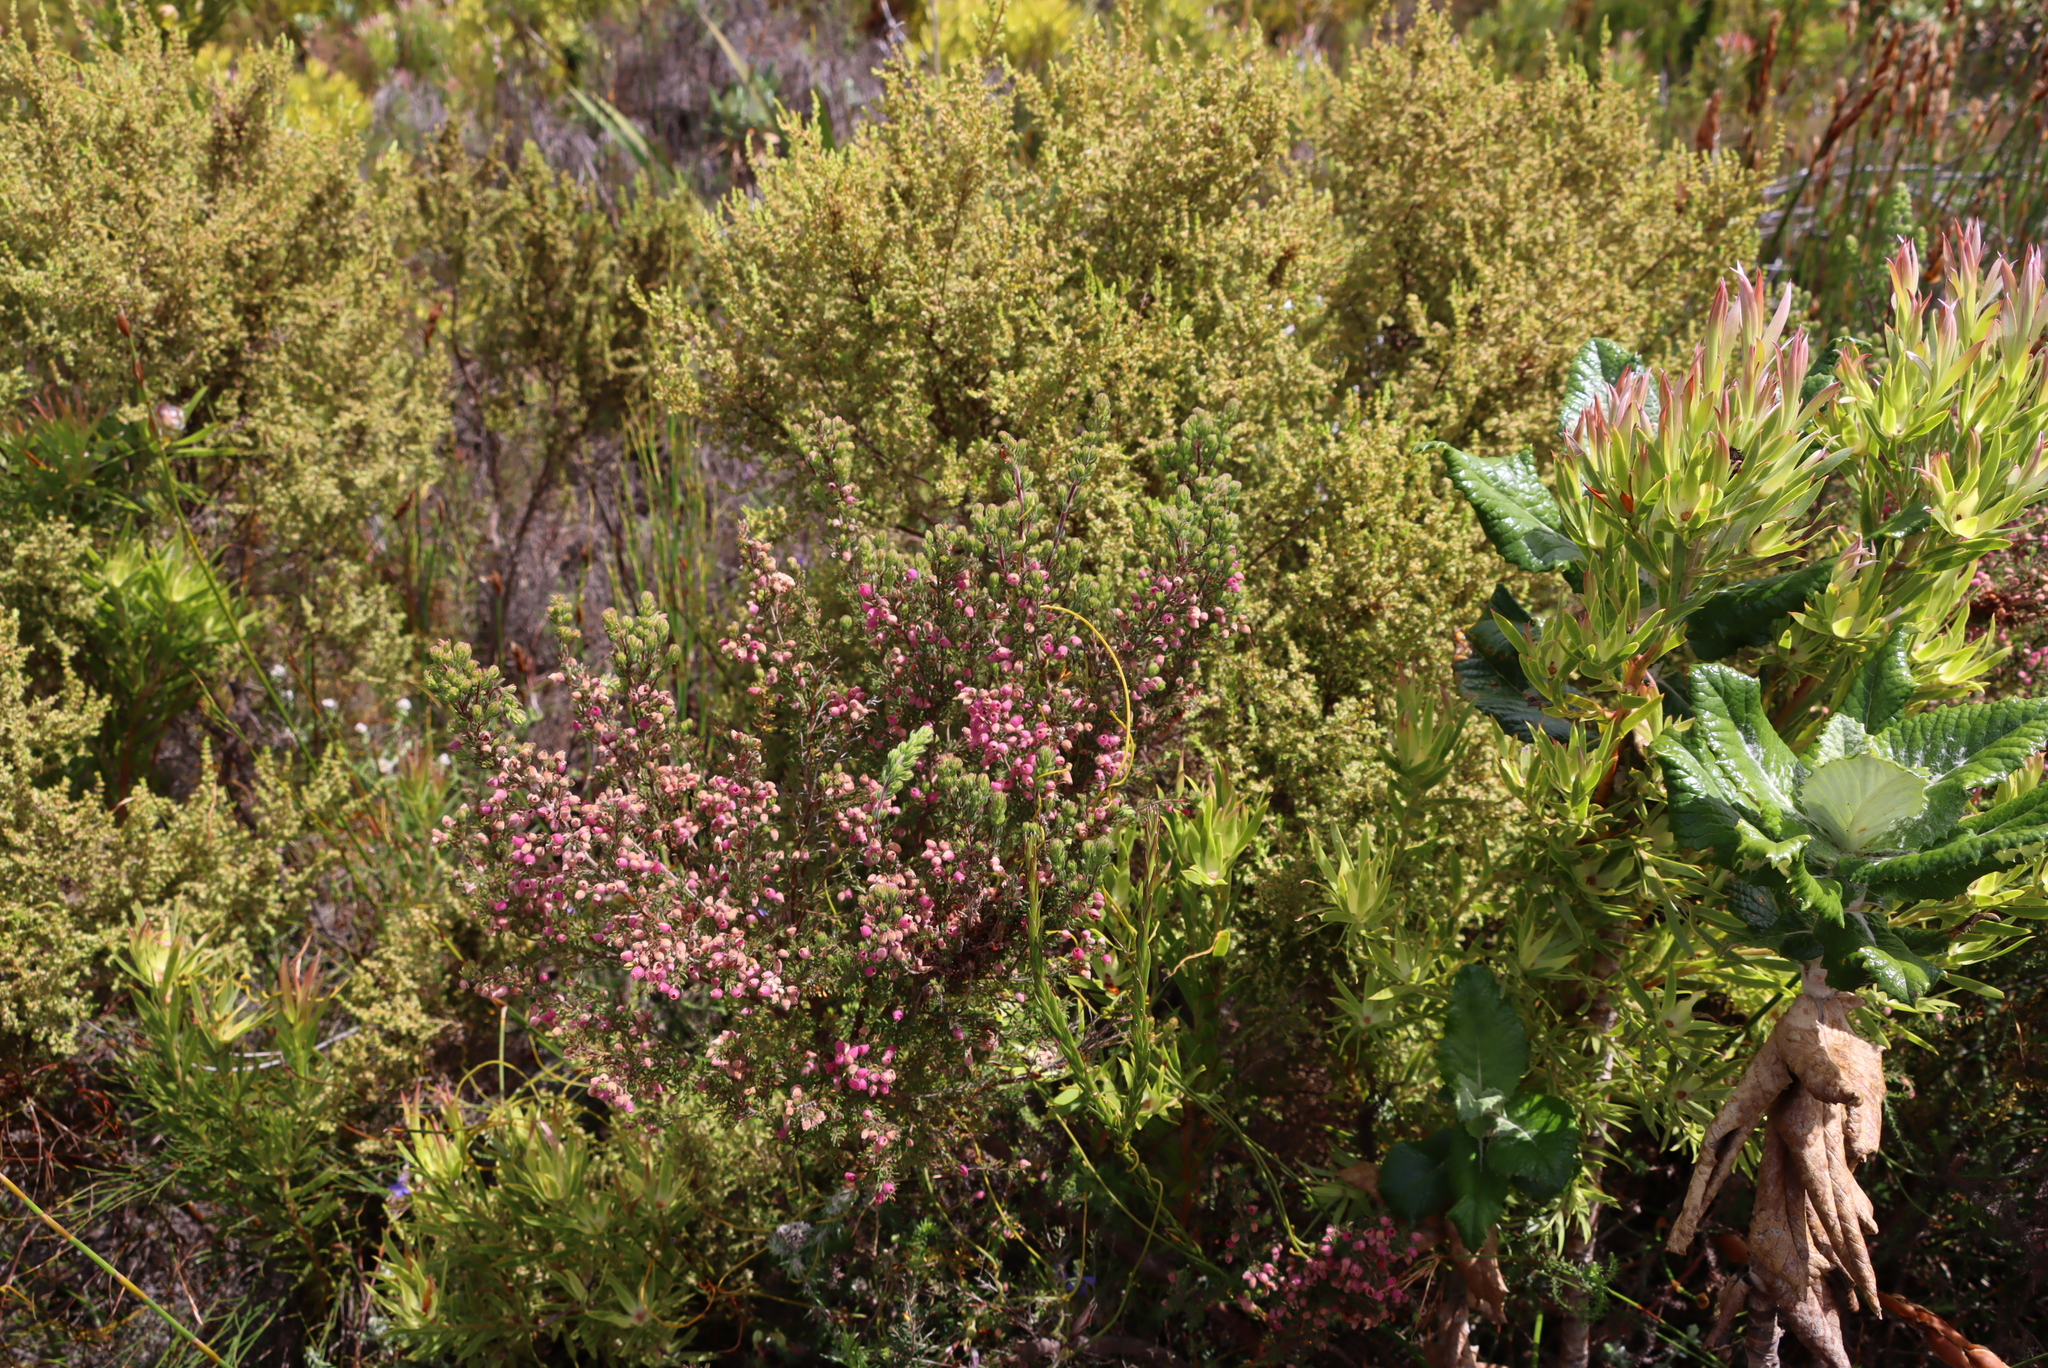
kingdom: Plantae
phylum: Tracheophyta
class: Magnoliopsida
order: Ericales
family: Ericaceae
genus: Erica
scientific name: Erica hirtiflora
